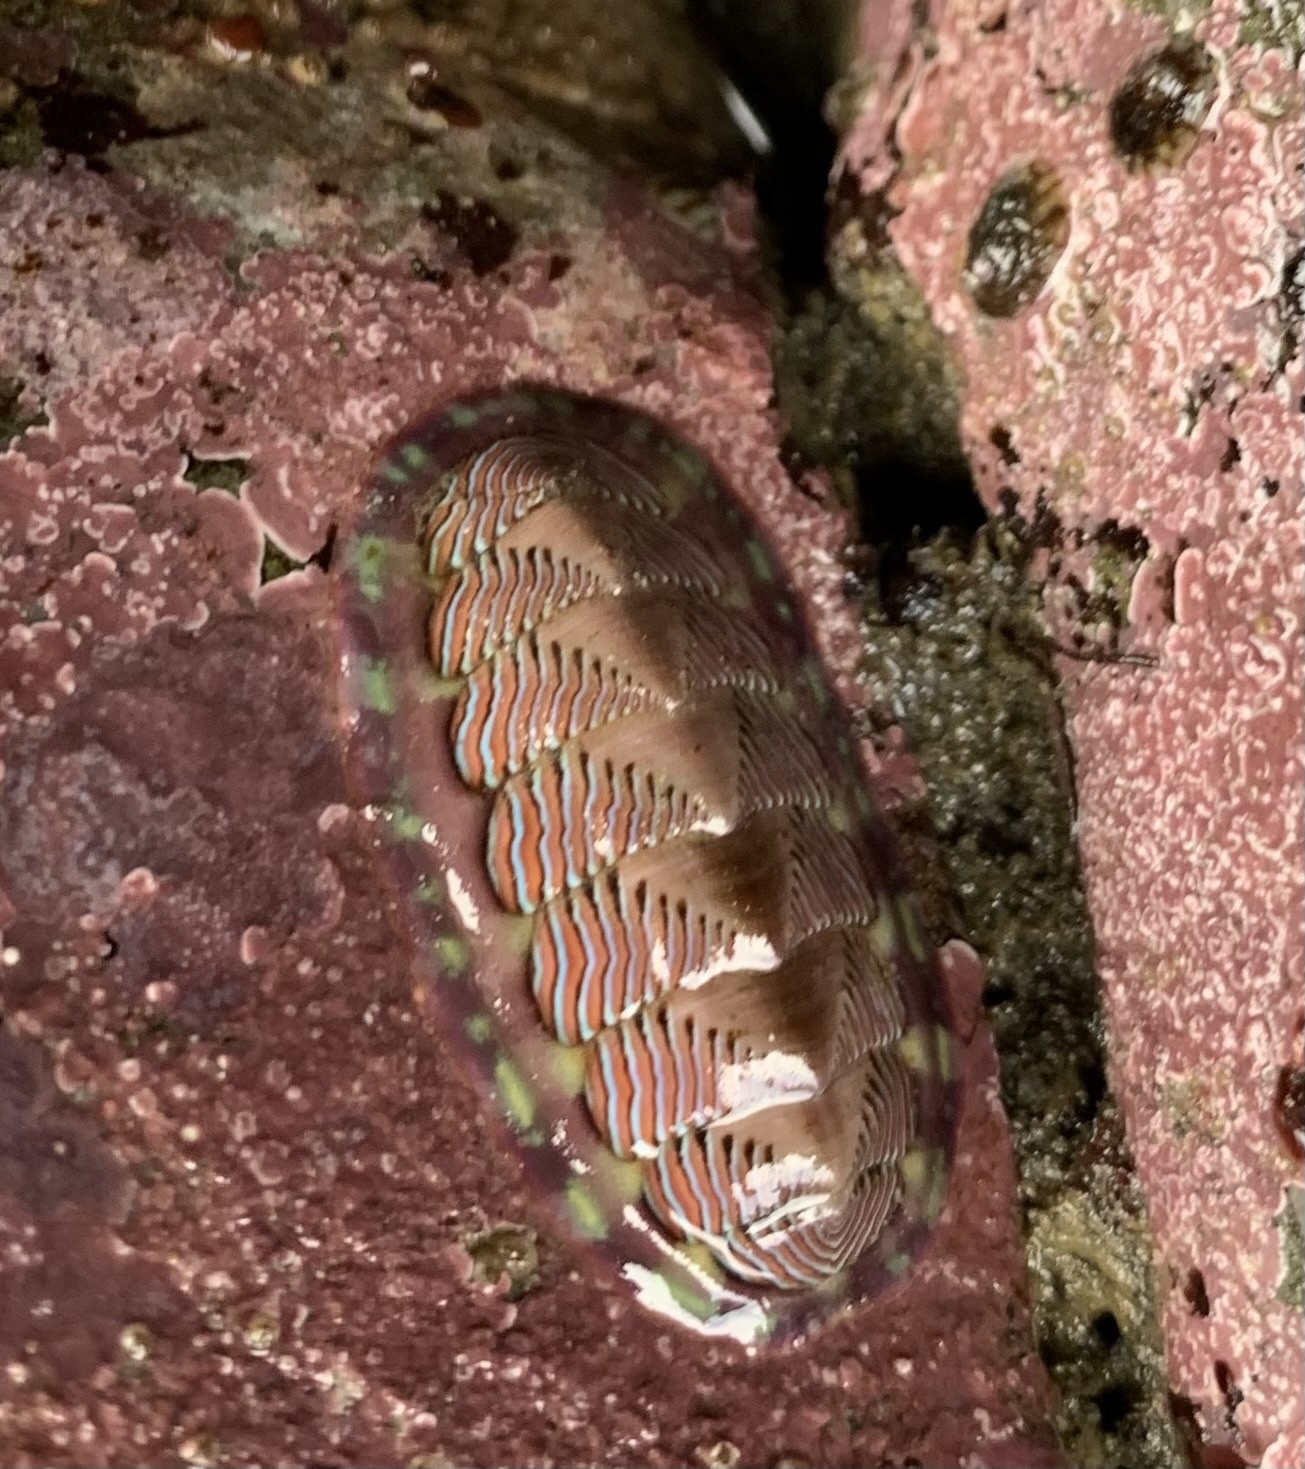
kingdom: Animalia
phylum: Mollusca
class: Polyplacophora
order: Chitonida
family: Tonicellidae
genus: Tonicella
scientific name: Tonicella lineata
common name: Lined chiton
